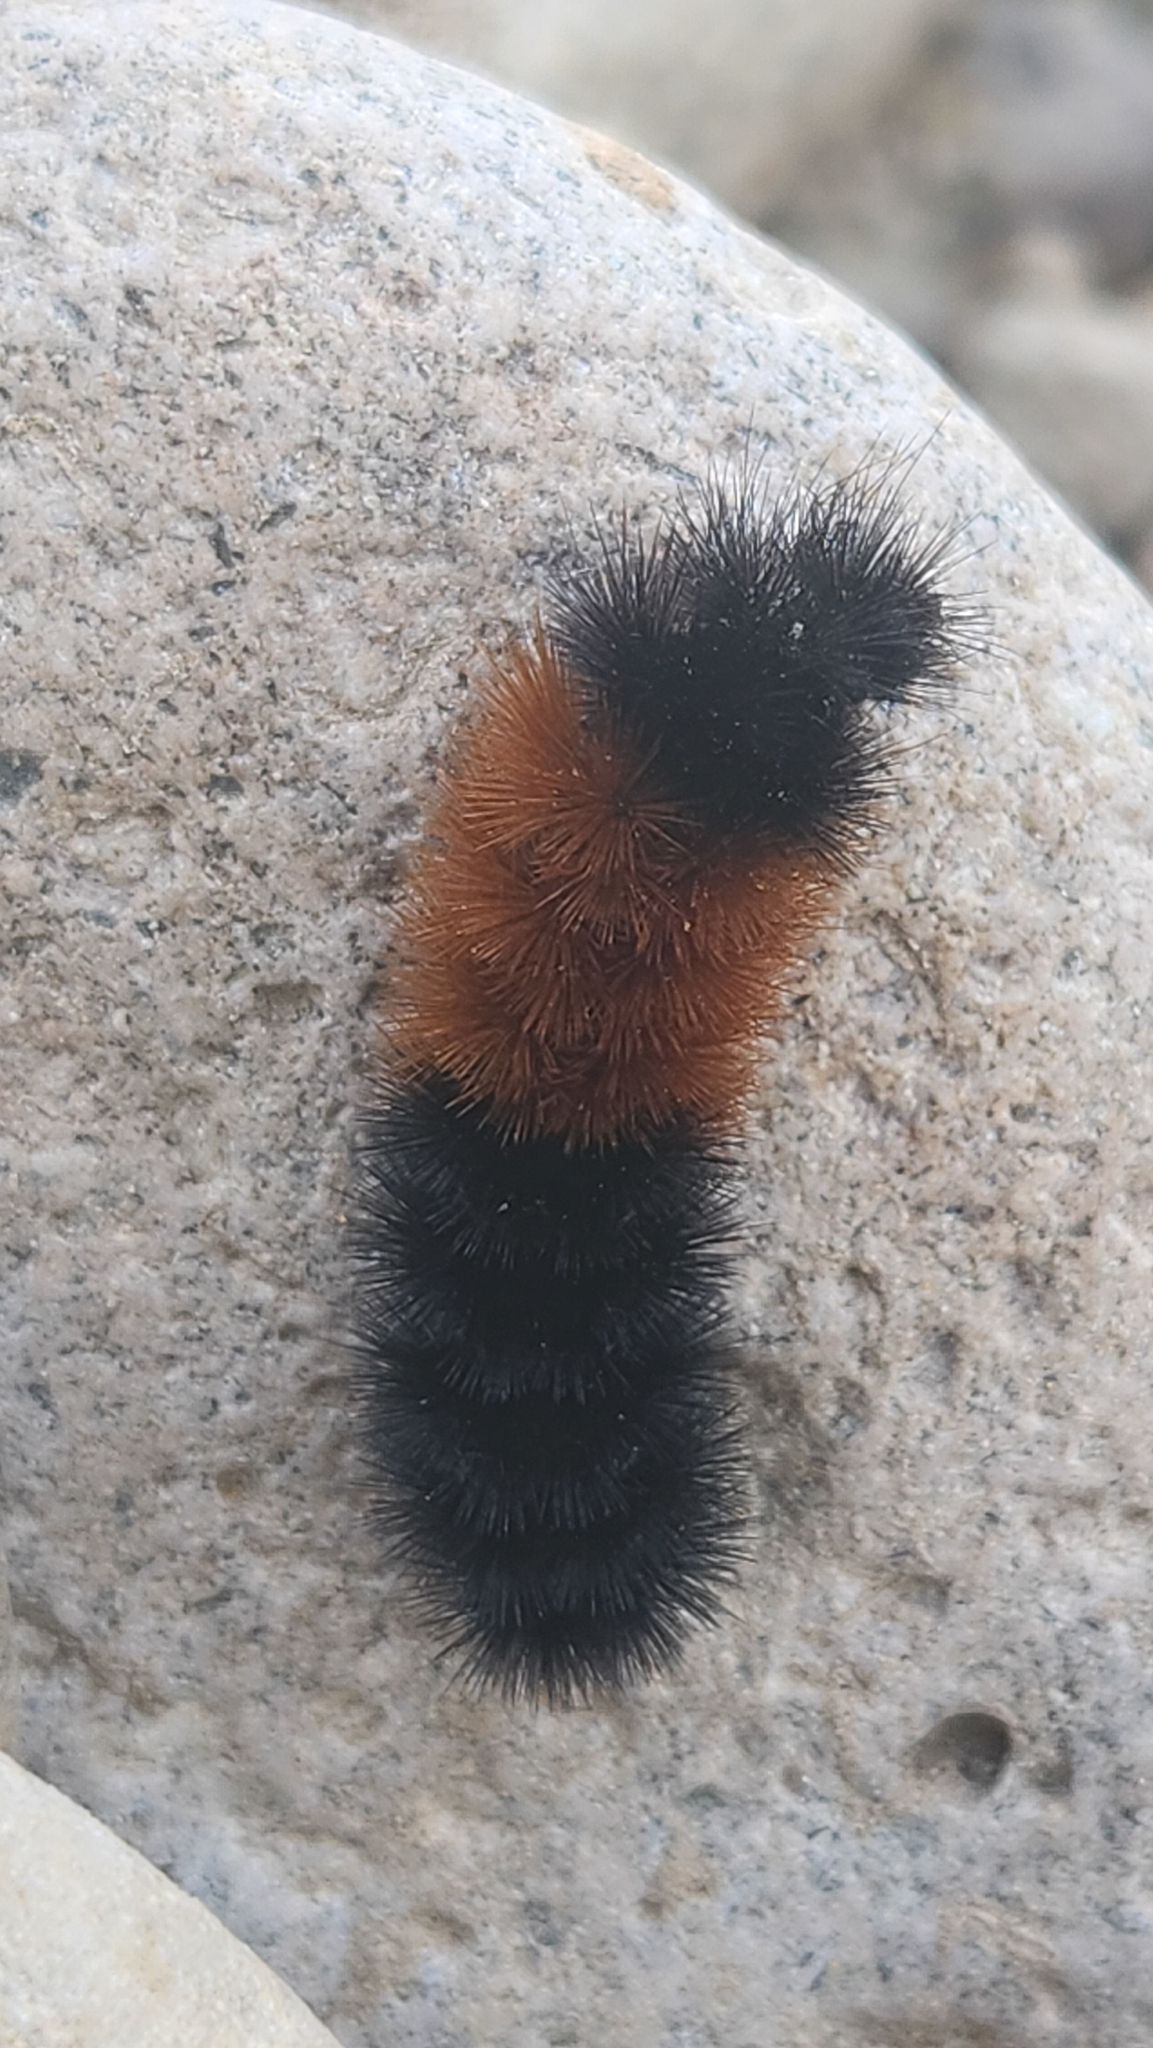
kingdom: Animalia
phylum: Arthropoda
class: Insecta
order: Lepidoptera
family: Erebidae
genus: Pyrrharctia
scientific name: Pyrrharctia isabella
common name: Isabella tiger moth
